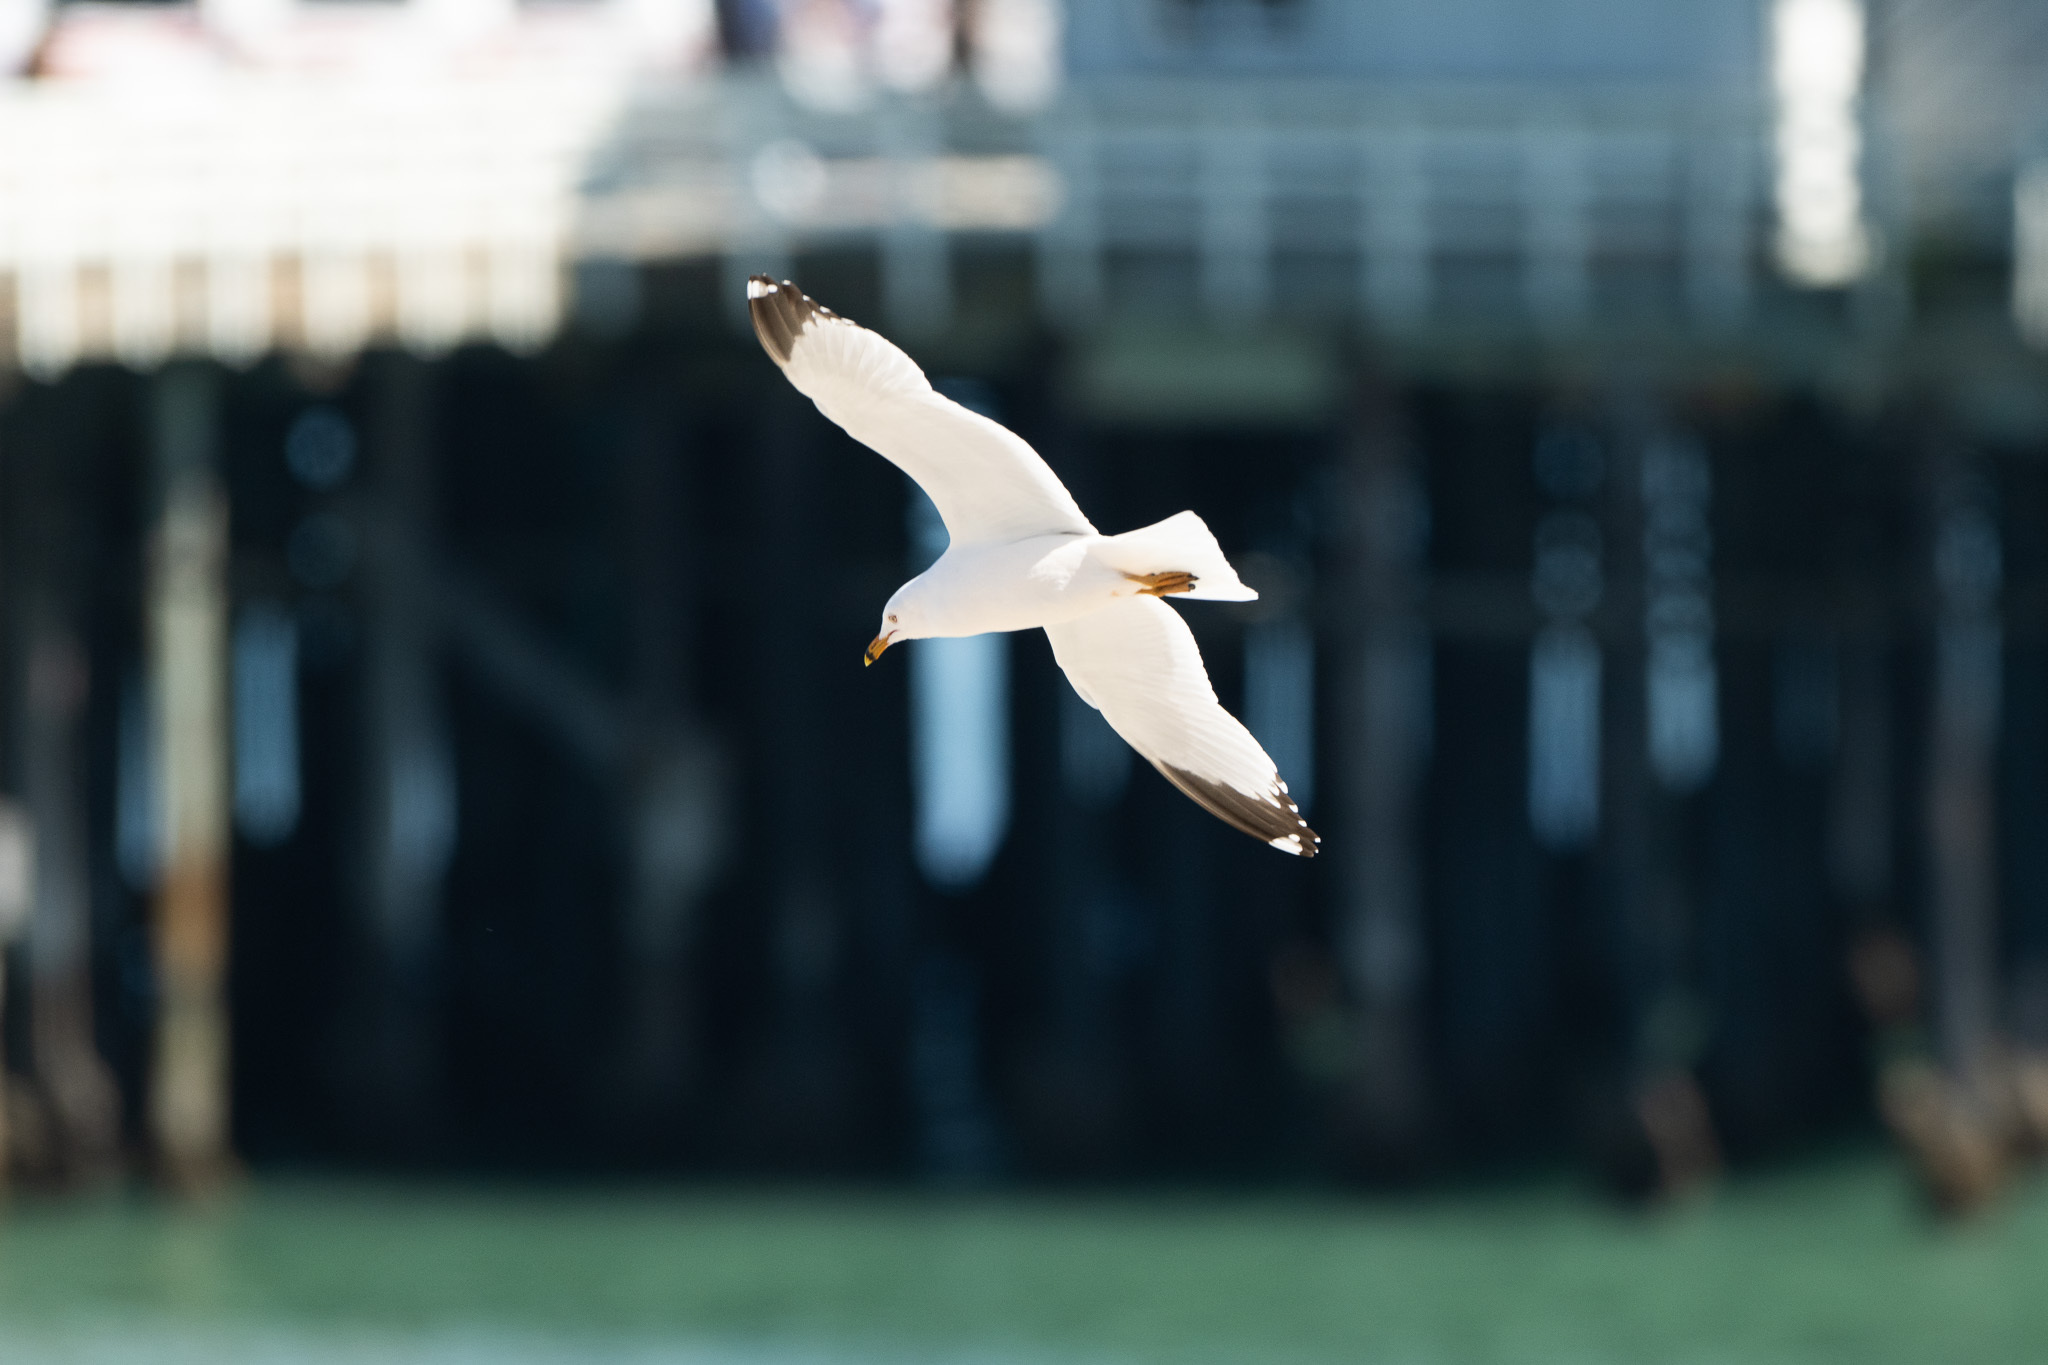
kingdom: Animalia
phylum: Chordata
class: Aves
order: Charadriiformes
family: Laridae
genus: Larus
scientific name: Larus delawarensis
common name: Ring-billed gull
